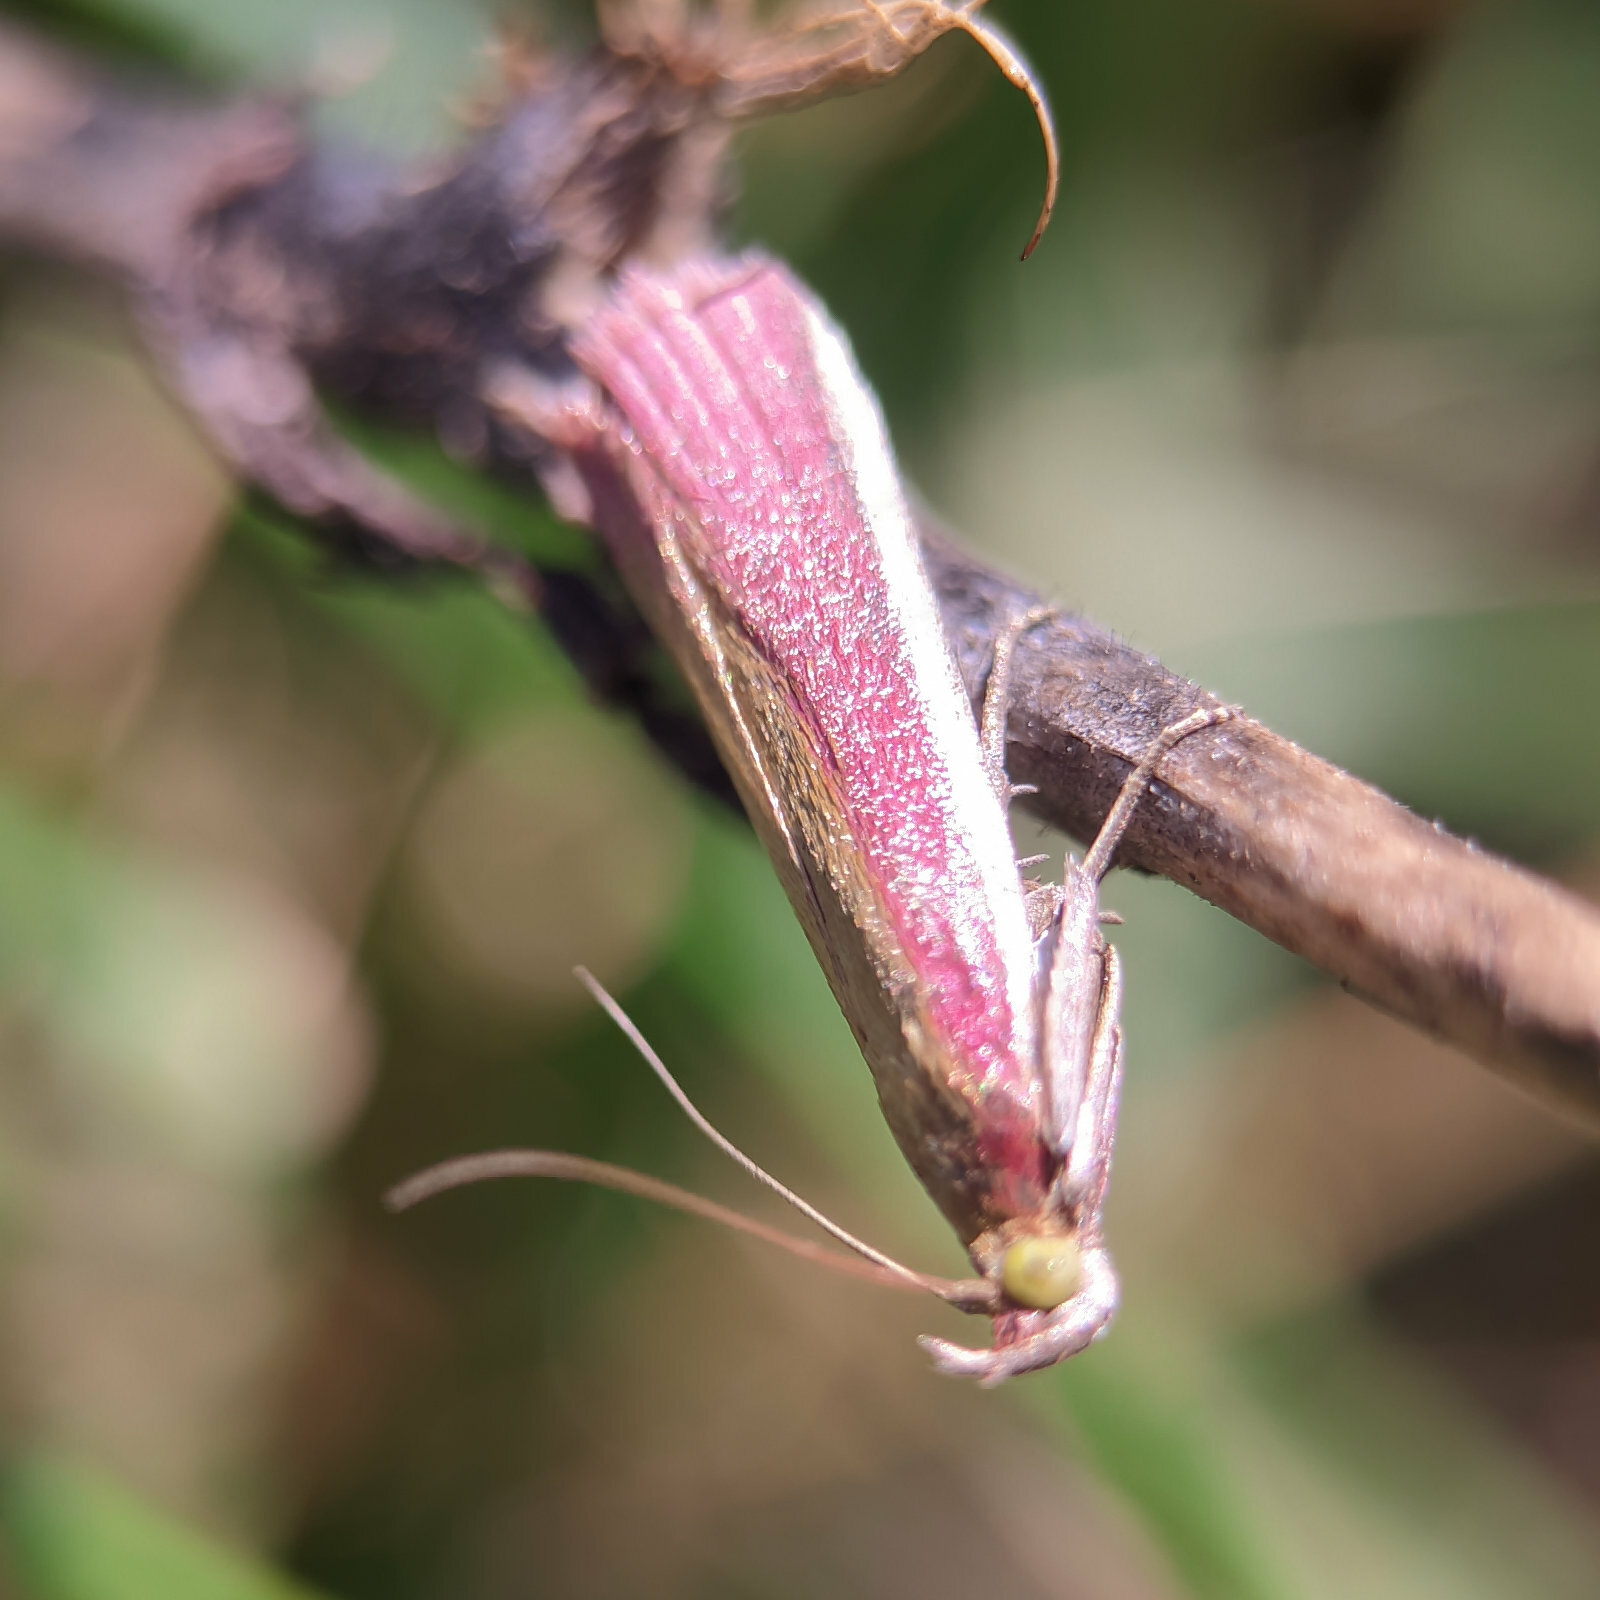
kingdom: Animalia
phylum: Arthropoda
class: Insecta
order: Lepidoptera
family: Pyralidae
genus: Oncocera
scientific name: Oncocera semirubella
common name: Rosy-striped knot-horn
